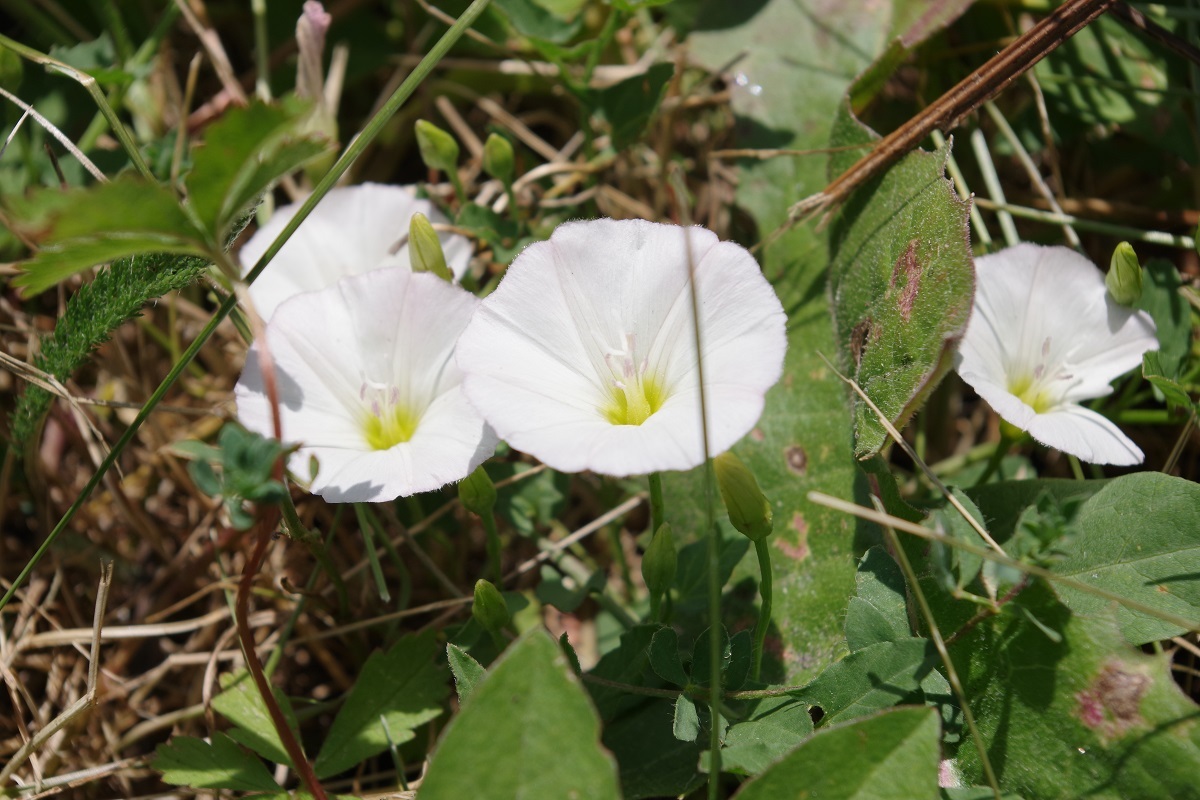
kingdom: Plantae
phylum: Tracheophyta
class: Magnoliopsida
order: Solanales
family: Convolvulaceae
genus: Convolvulus
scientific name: Convolvulus arvensis
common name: Field bindweed
